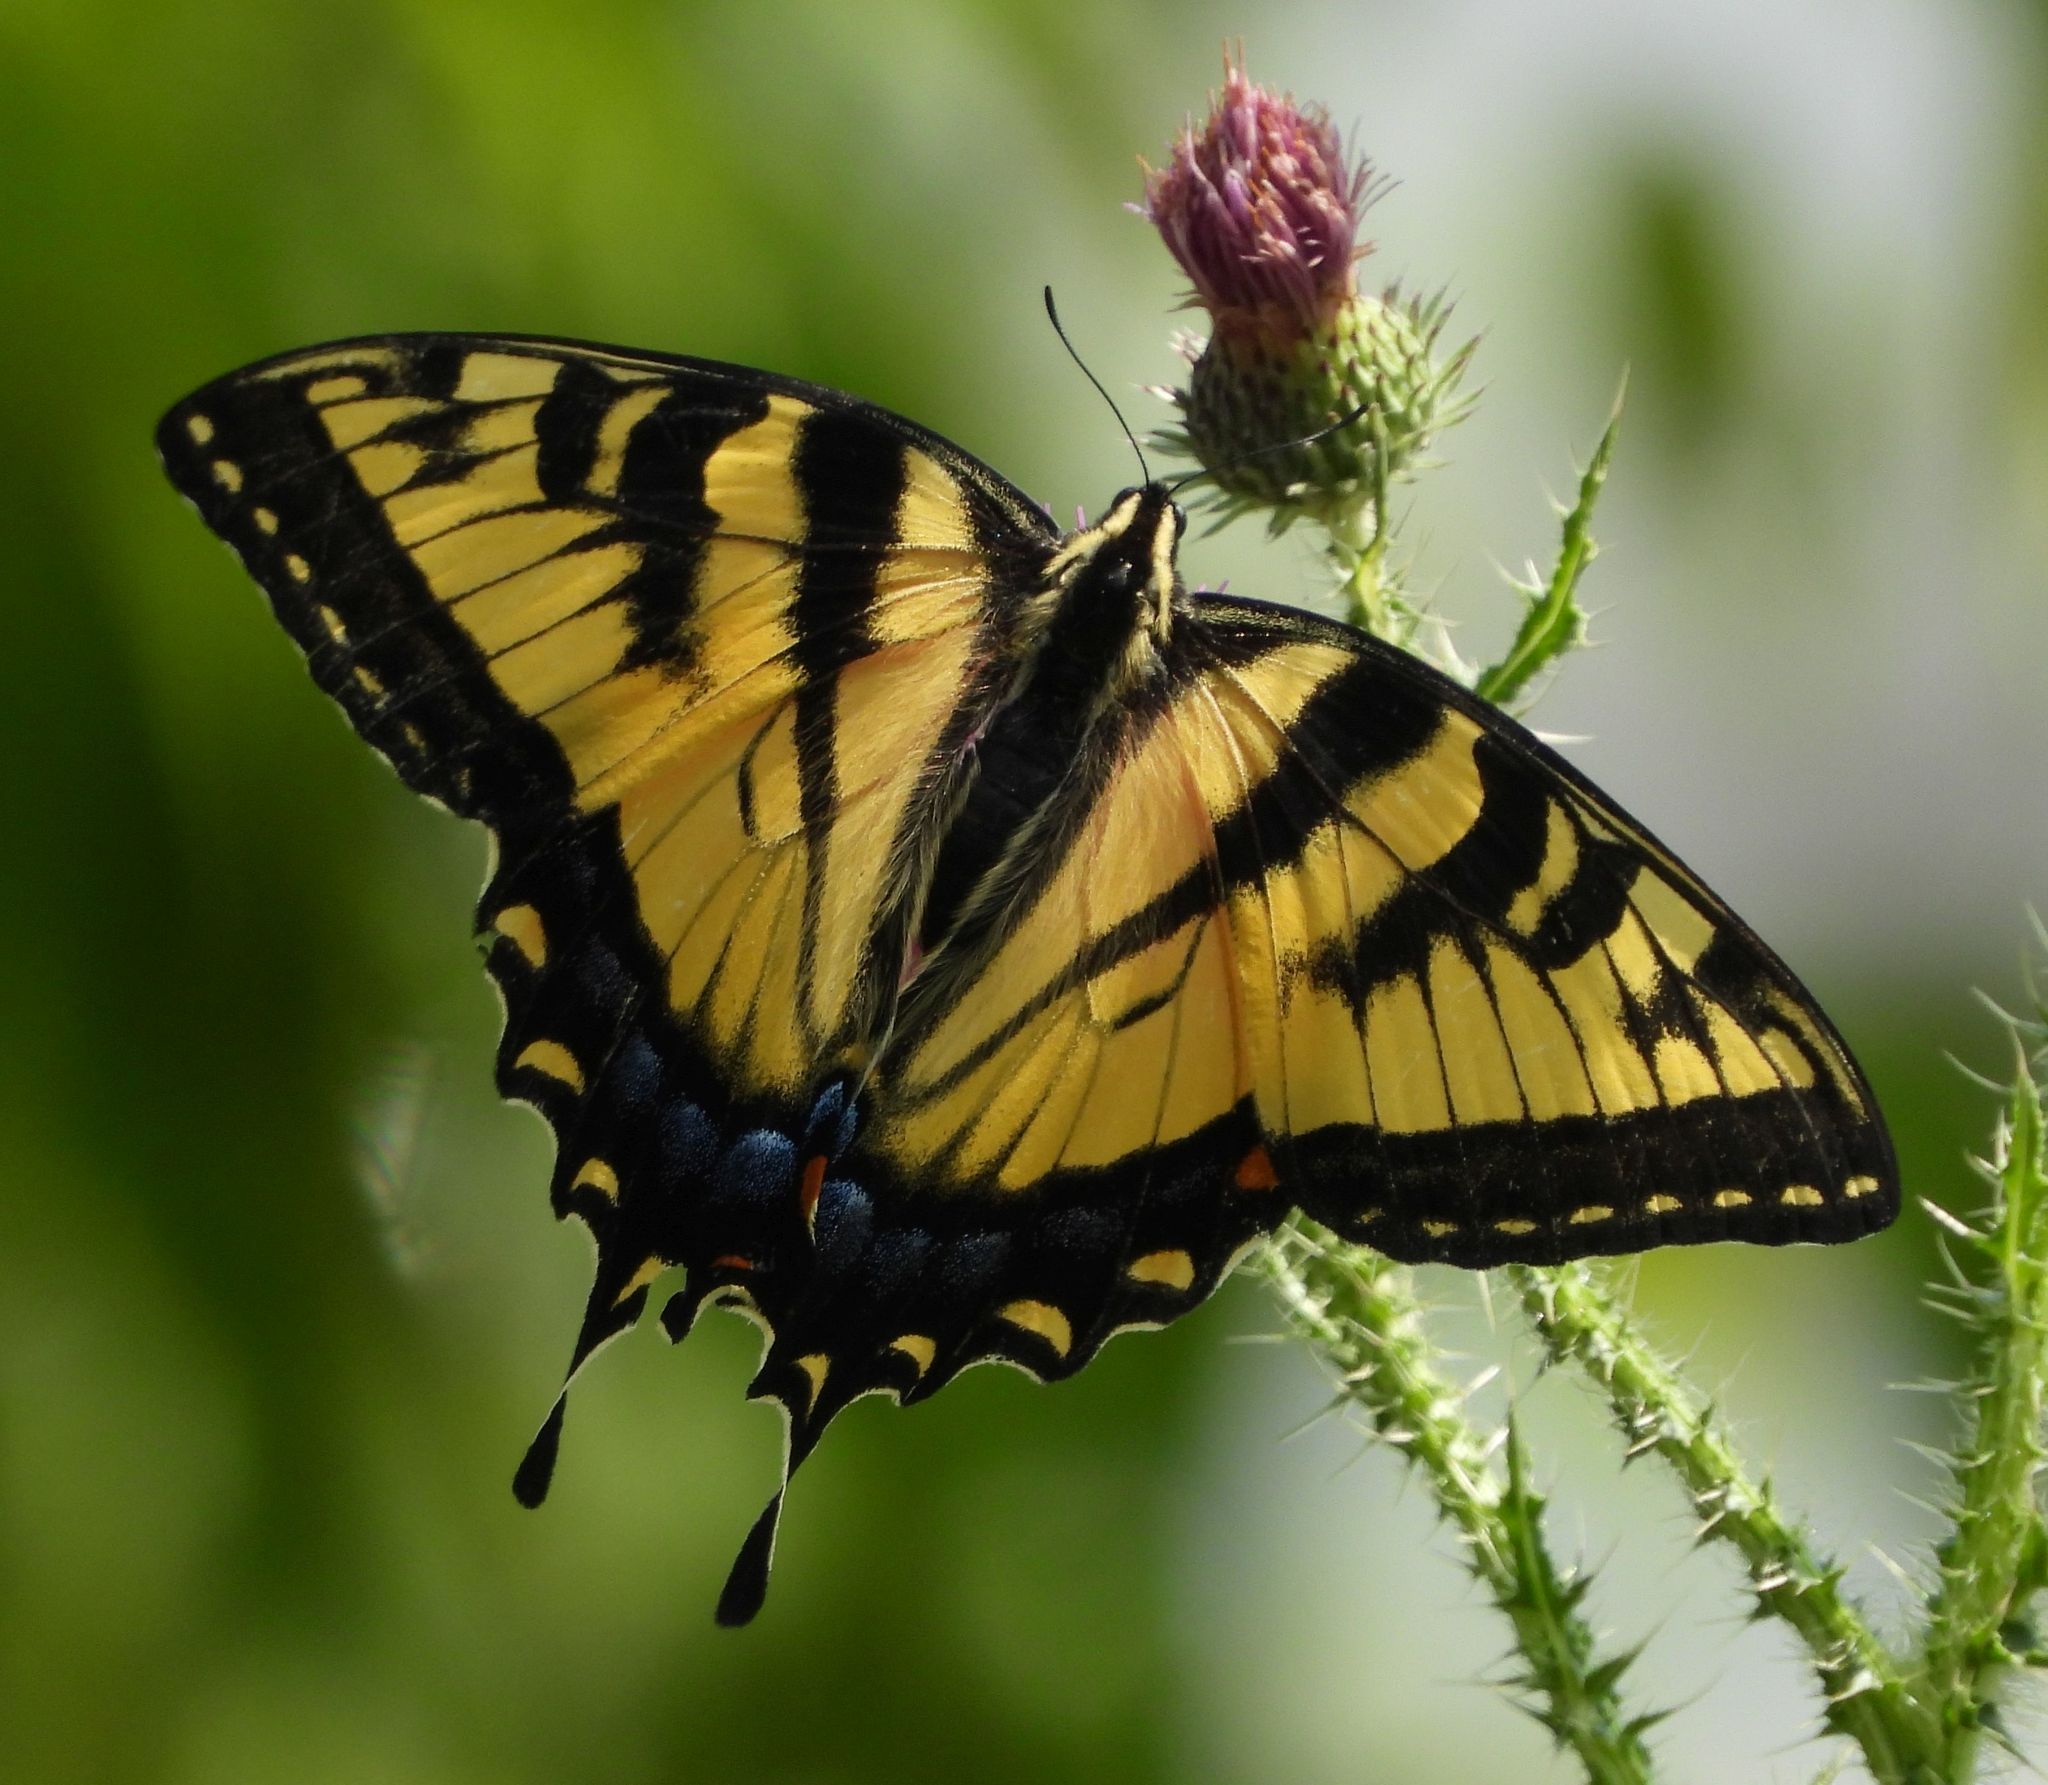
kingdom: Animalia
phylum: Arthropoda
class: Insecta
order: Lepidoptera
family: Papilionidae
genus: Papilio
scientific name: Papilio
